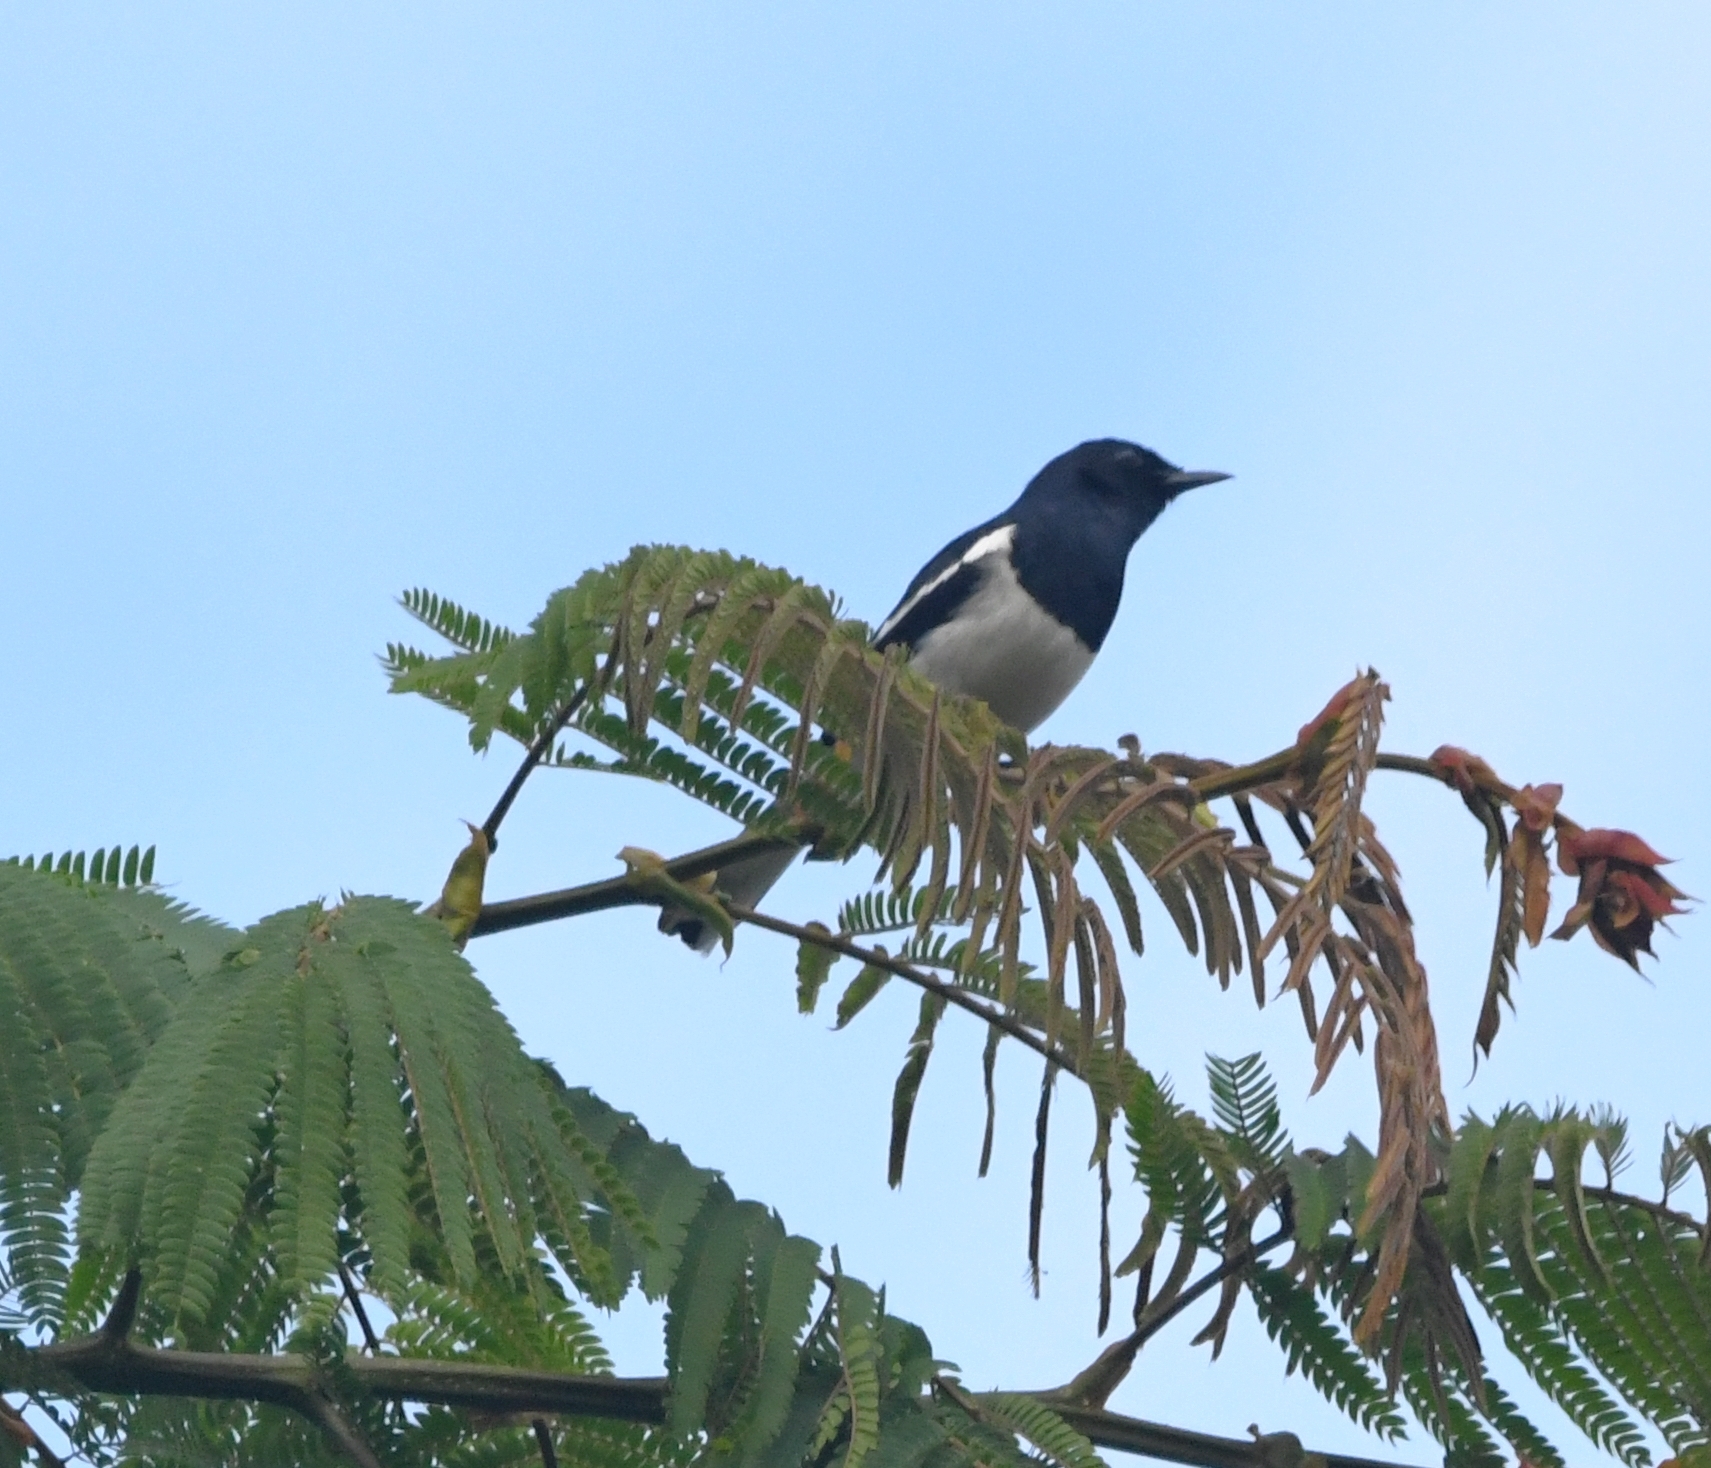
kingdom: Animalia
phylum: Chordata
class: Aves
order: Passeriformes
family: Muscicapidae
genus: Copsychus
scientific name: Copsychus saularis
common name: Oriental magpie-robin
